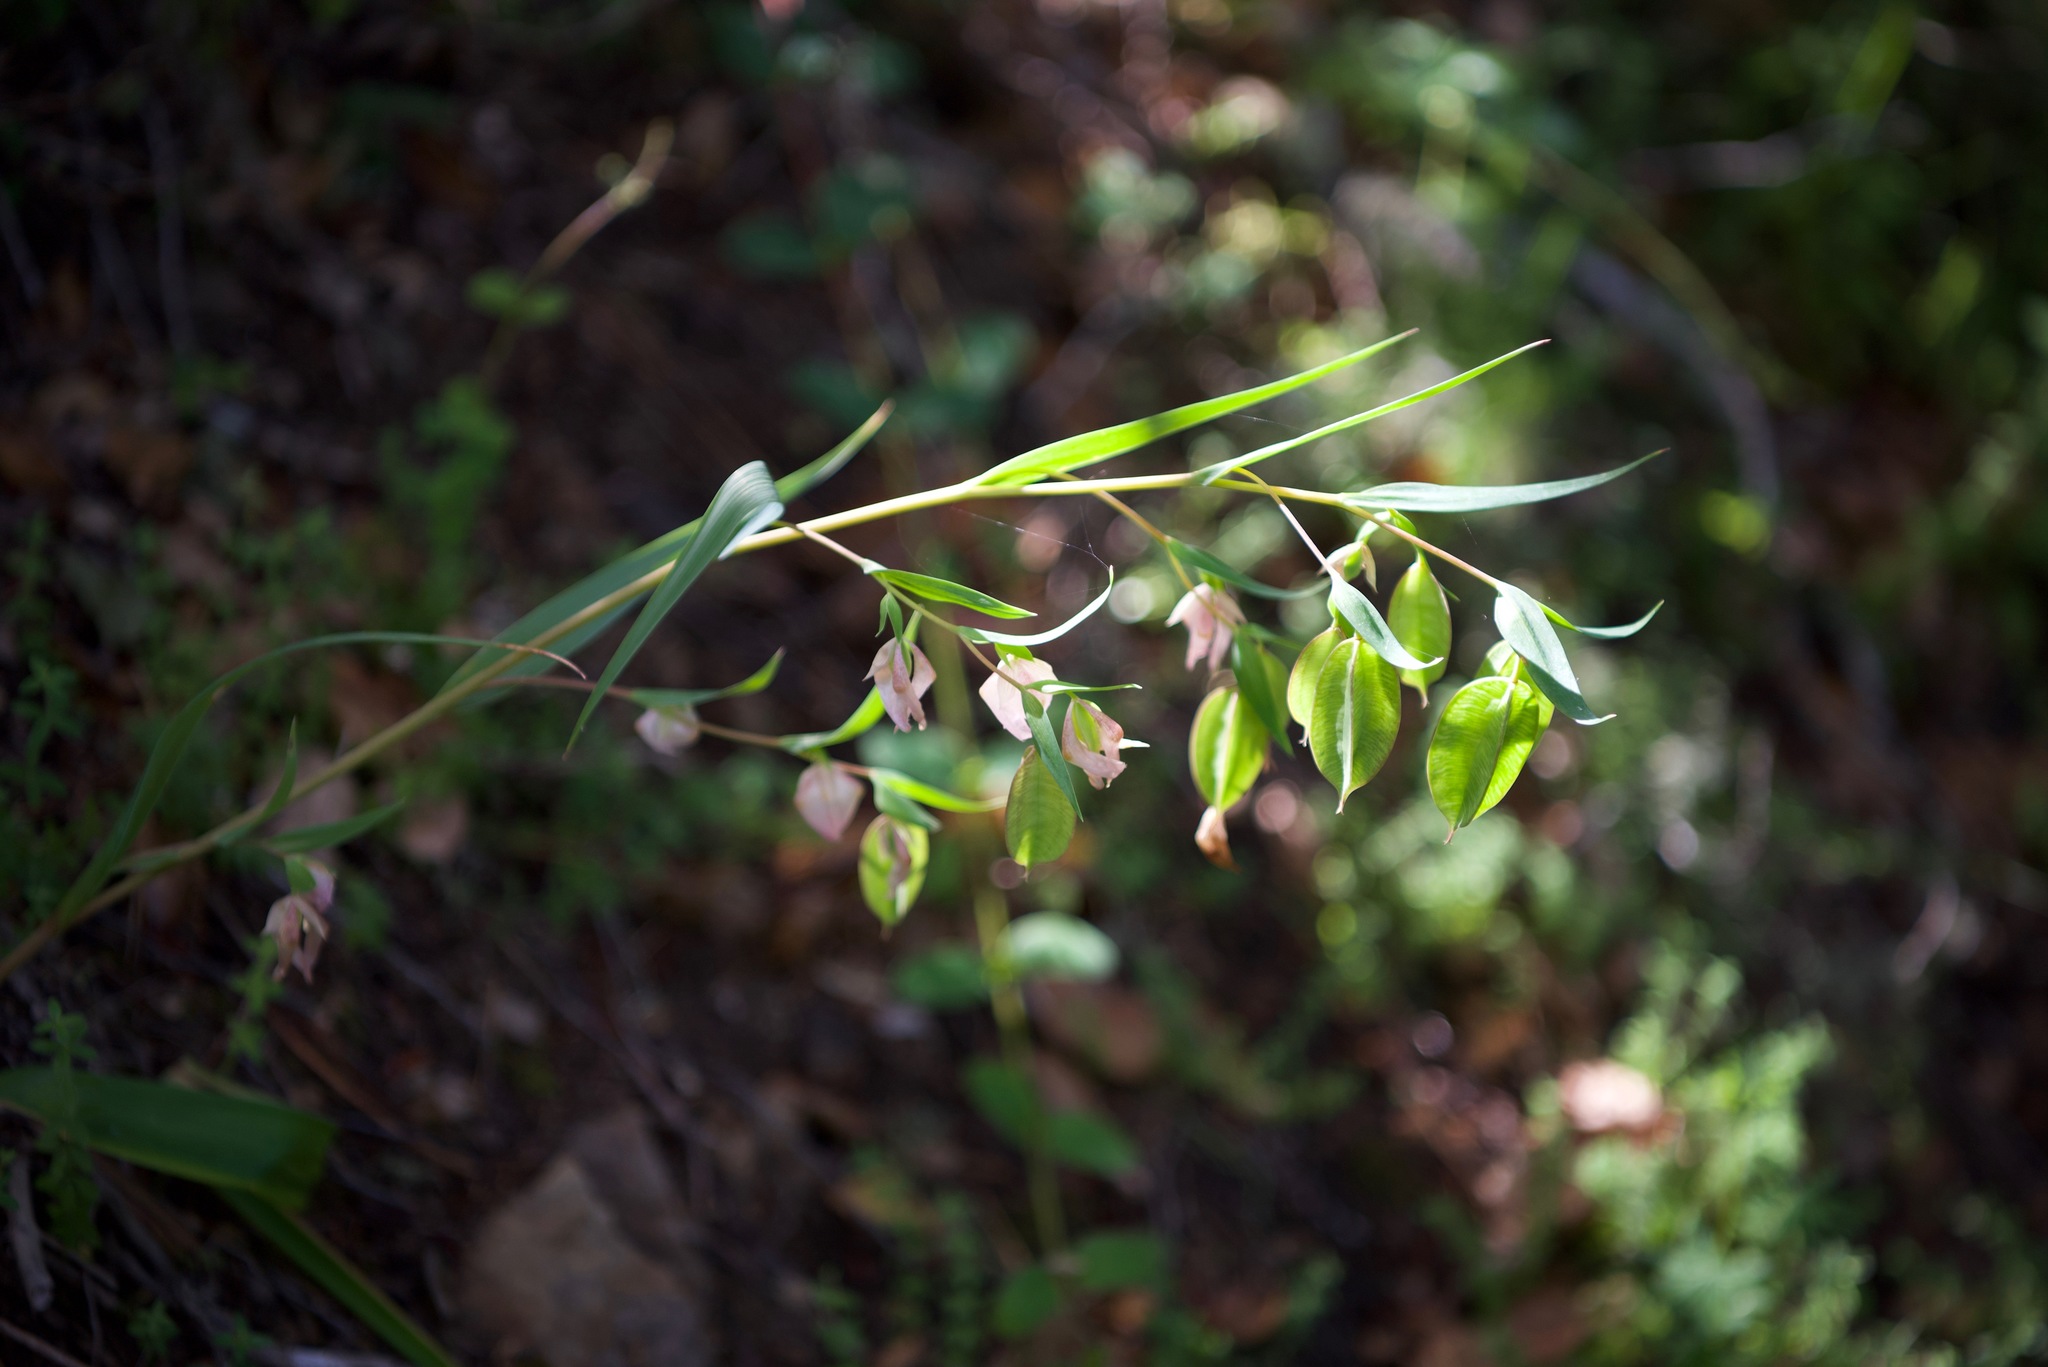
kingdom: Plantae
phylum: Tracheophyta
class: Liliopsida
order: Liliales
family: Liliaceae
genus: Calochortus
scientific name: Calochortus albus
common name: Fairy-lantern
